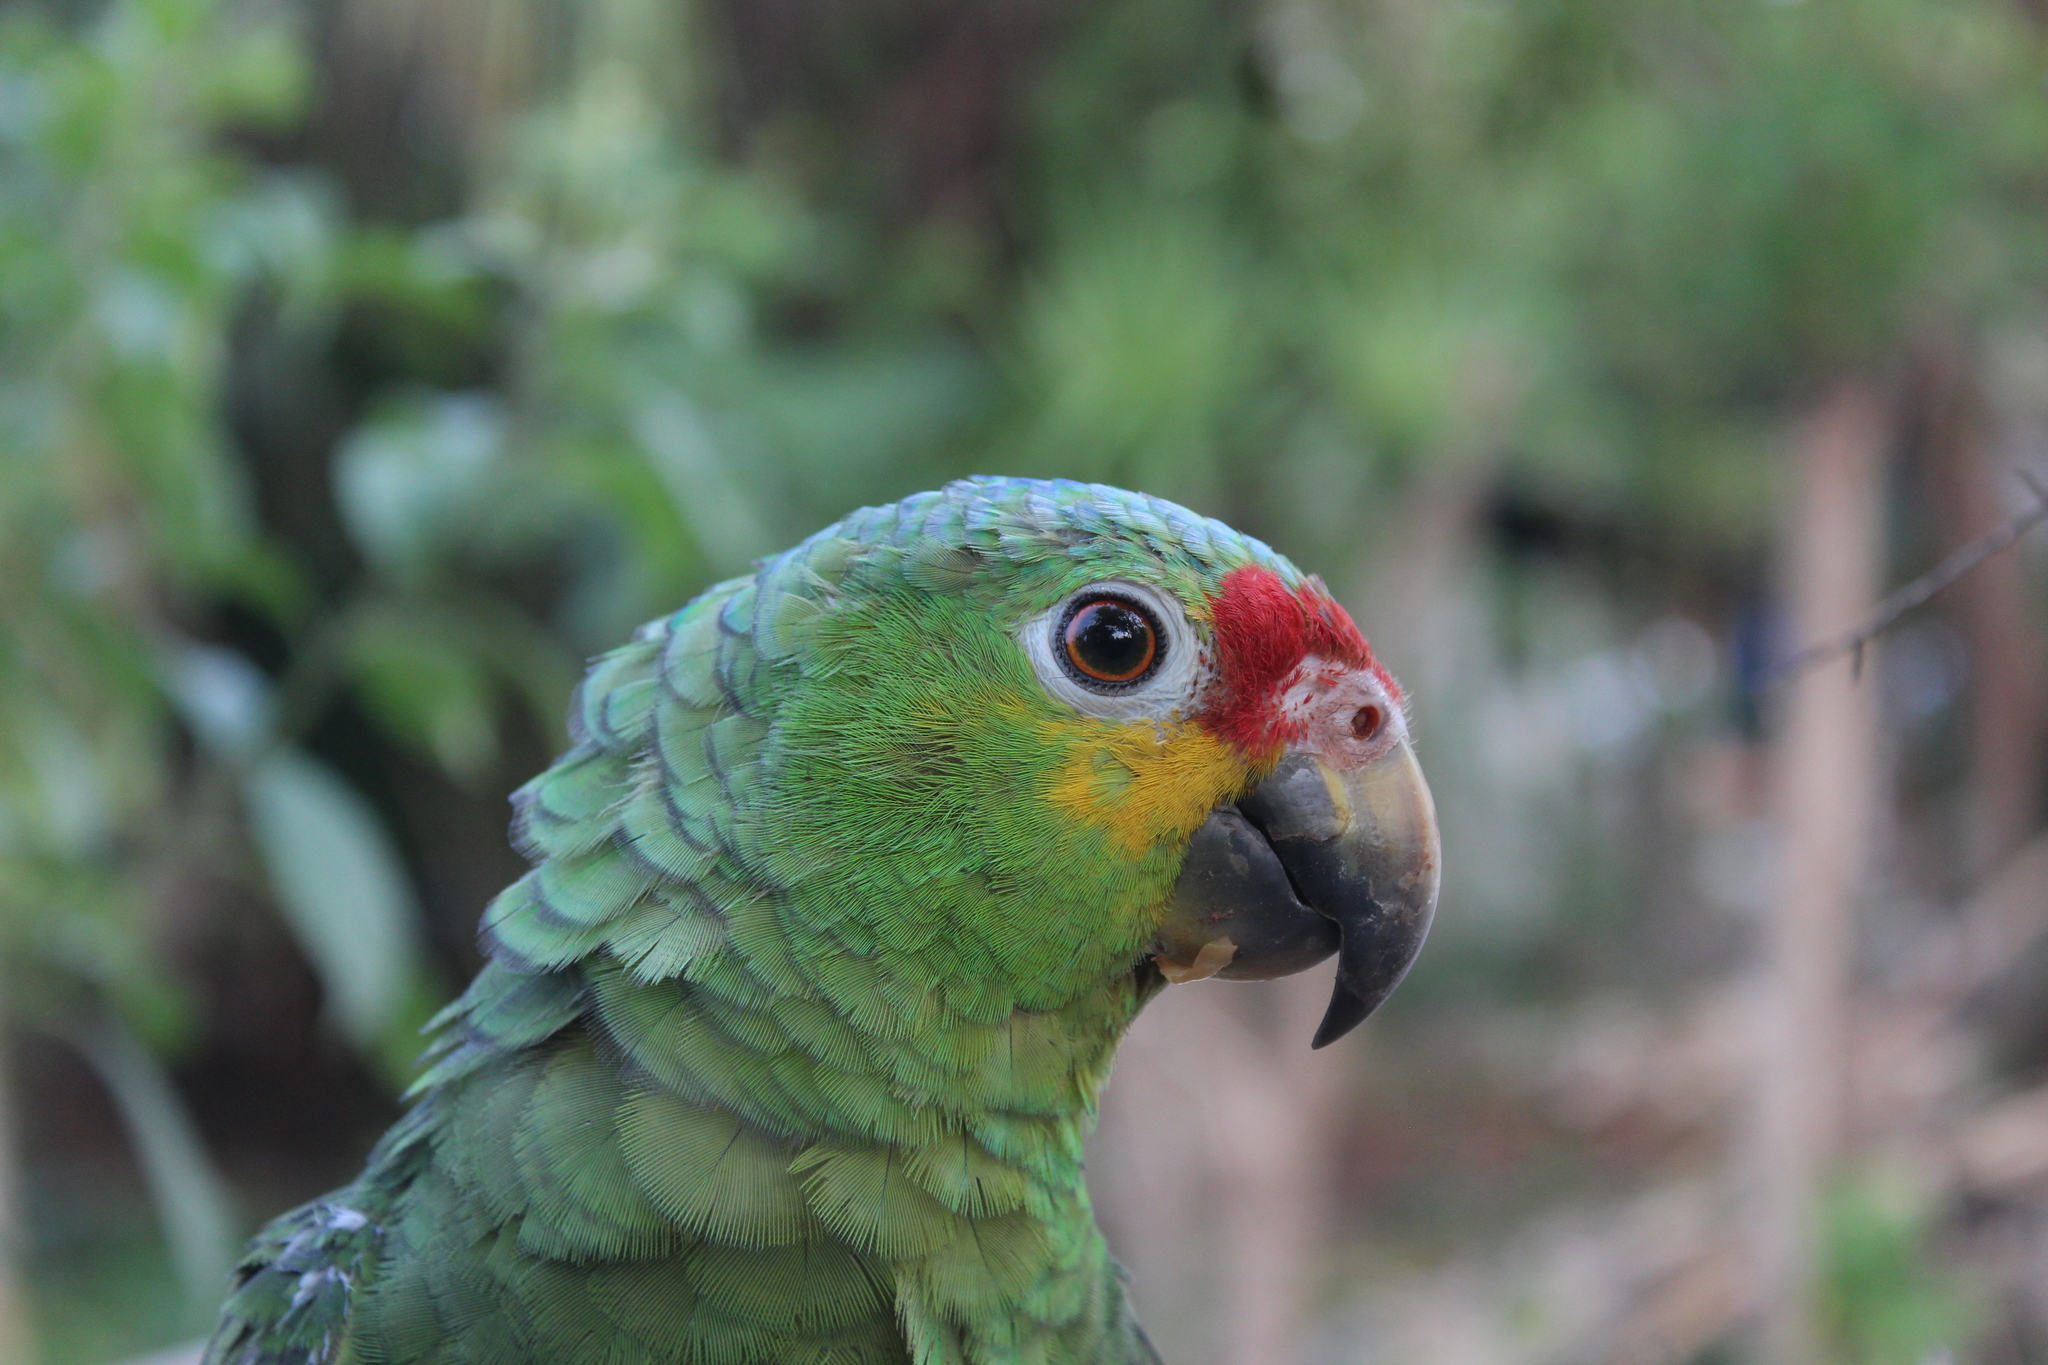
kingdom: Animalia
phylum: Chordata
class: Aves
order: Psittaciformes
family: Psittacidae
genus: Amazona
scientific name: Amazona autumnalis
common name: Red-lored amazon
